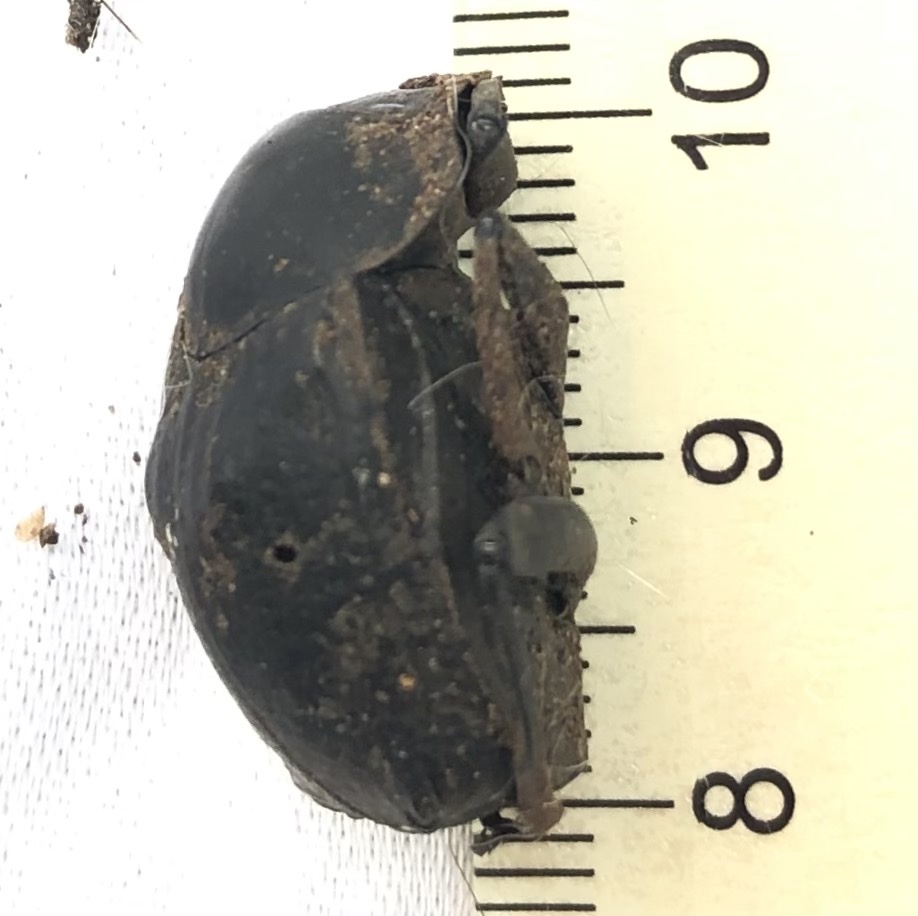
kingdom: Animalia
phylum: Arthropoda
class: Insecta
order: Coleoptera
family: Scarabaeidae
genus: Deltochilum
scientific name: Deltochilum gibbosum
